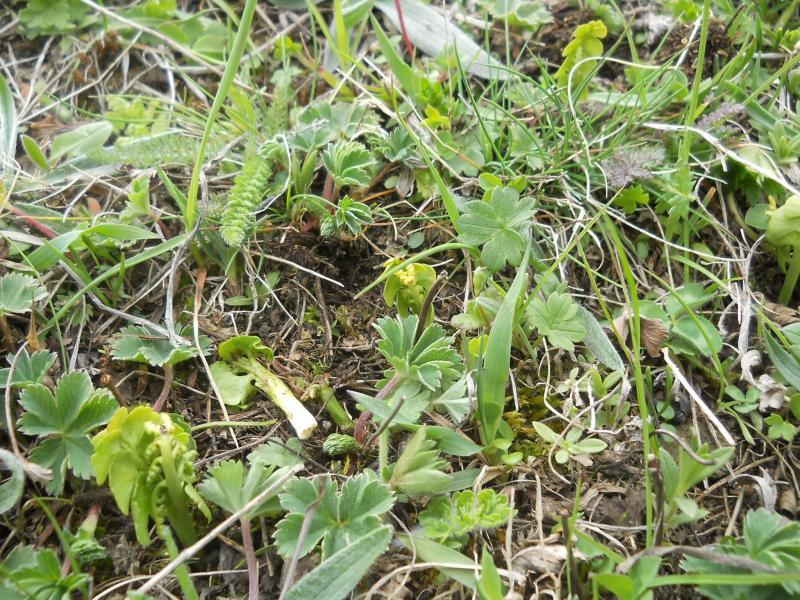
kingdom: Plantae
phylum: Tracheophyta
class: Polypodiopsida
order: Ophioglossales
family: Ophioglossaceae
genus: Botrychium
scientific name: Botrychium lunaria
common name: Moonwort
